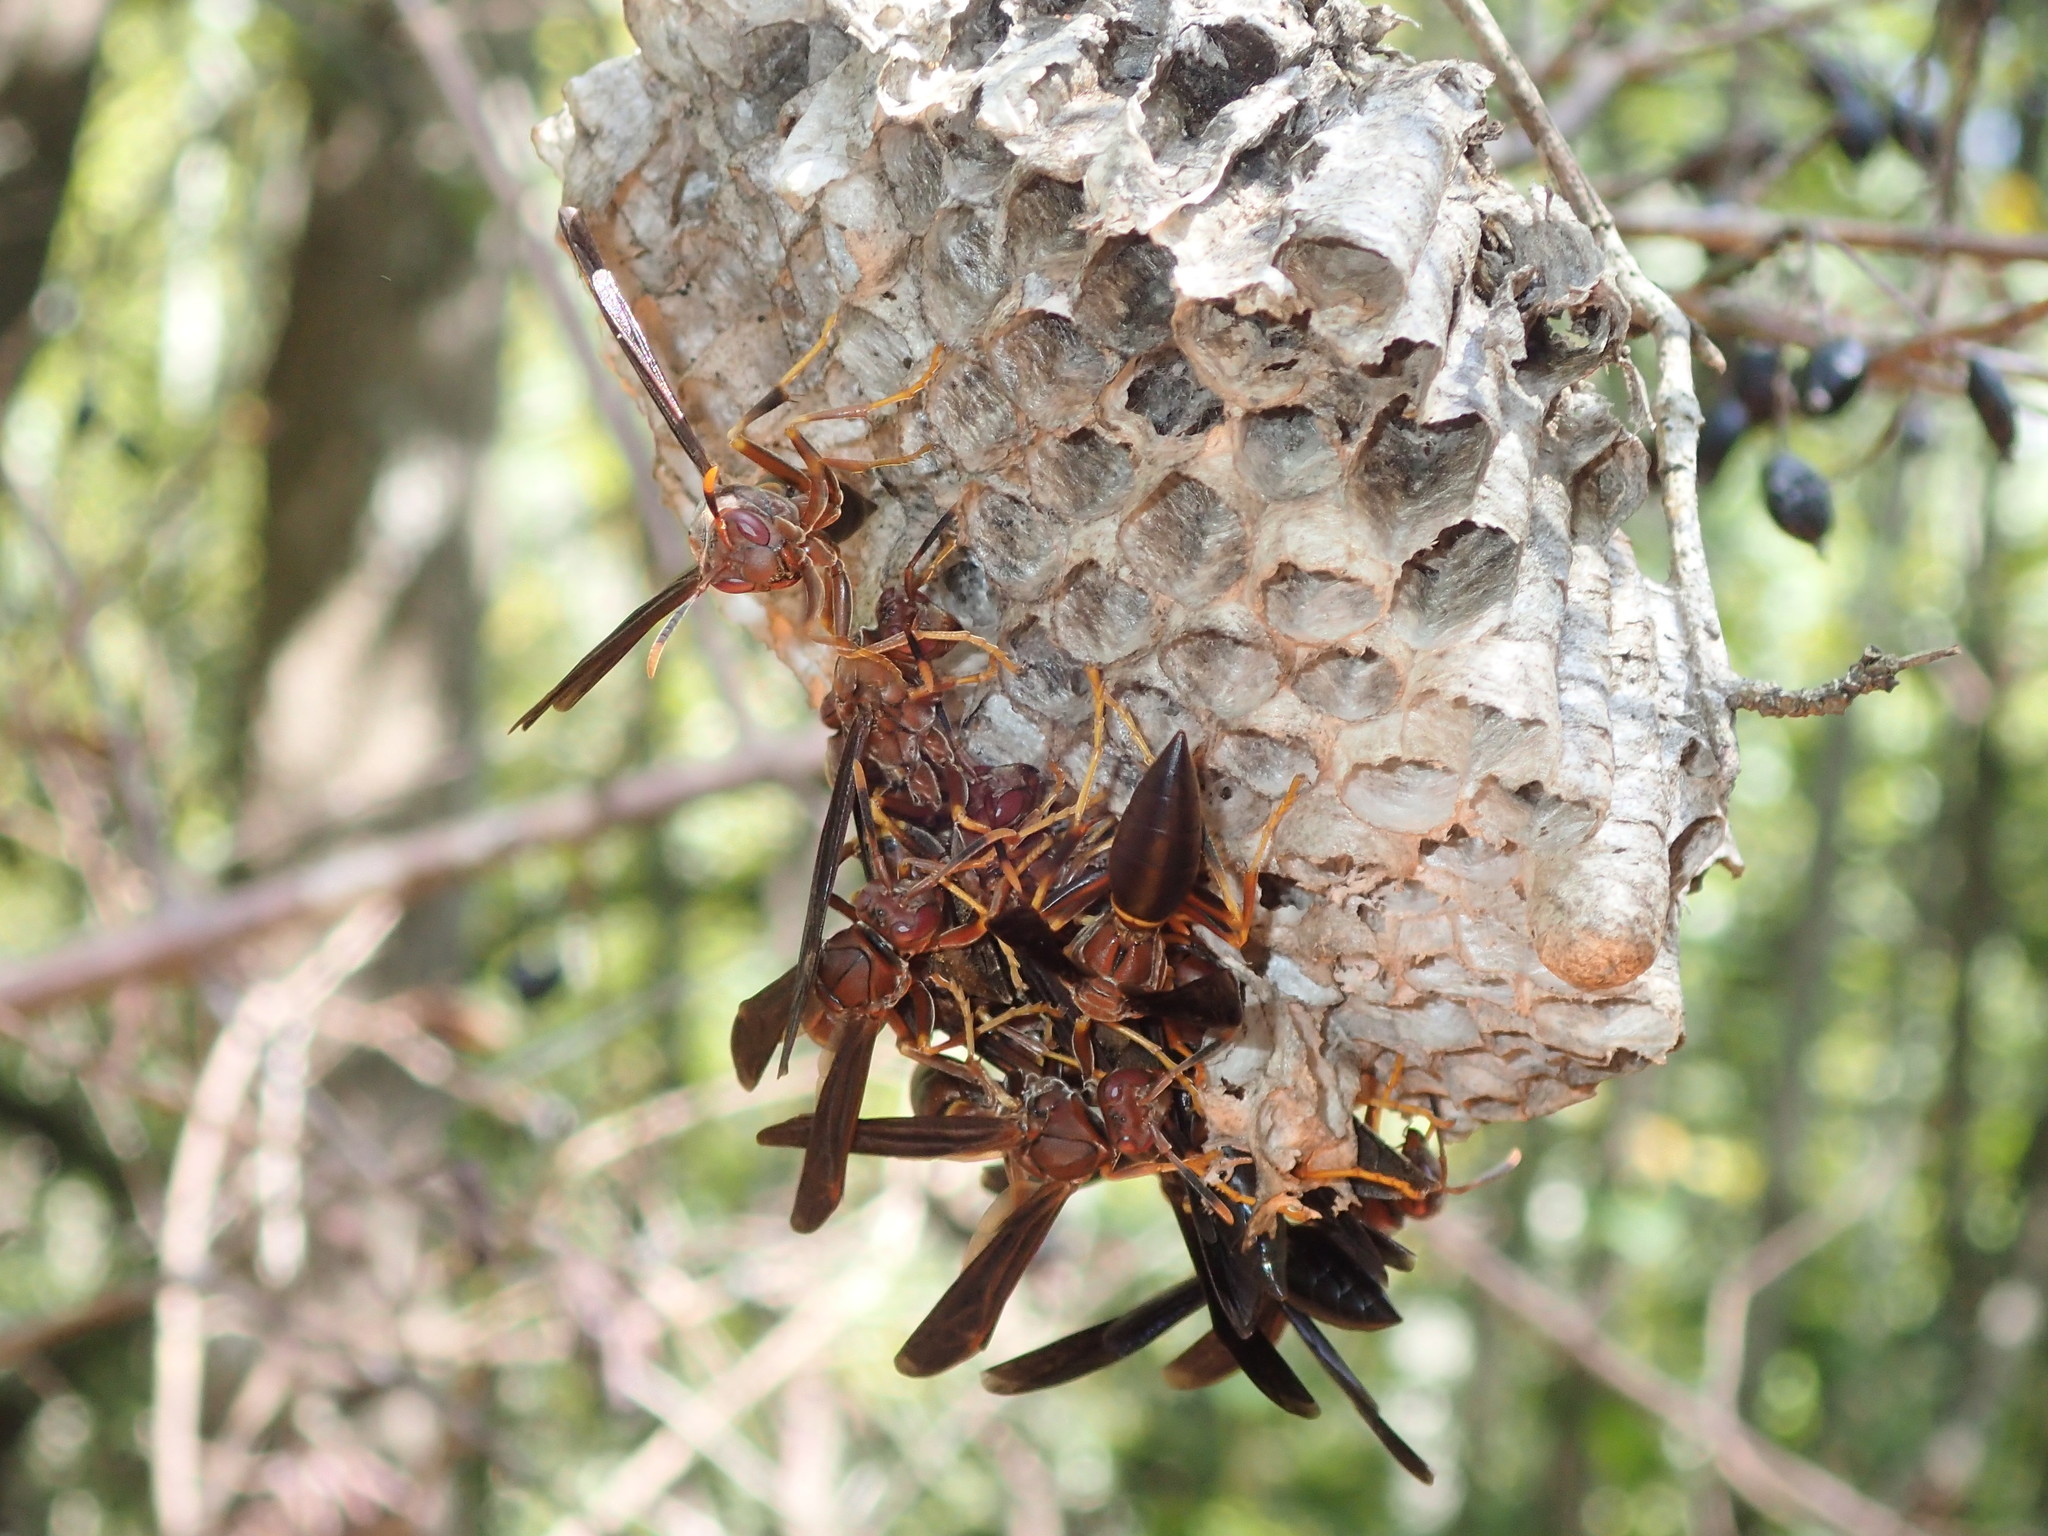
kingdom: Animalia
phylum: Arthropoda
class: Insecta
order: Hymenoptera
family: Eumenidae
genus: Polistes
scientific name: Polistes annularis
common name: Ringed paper wasp
